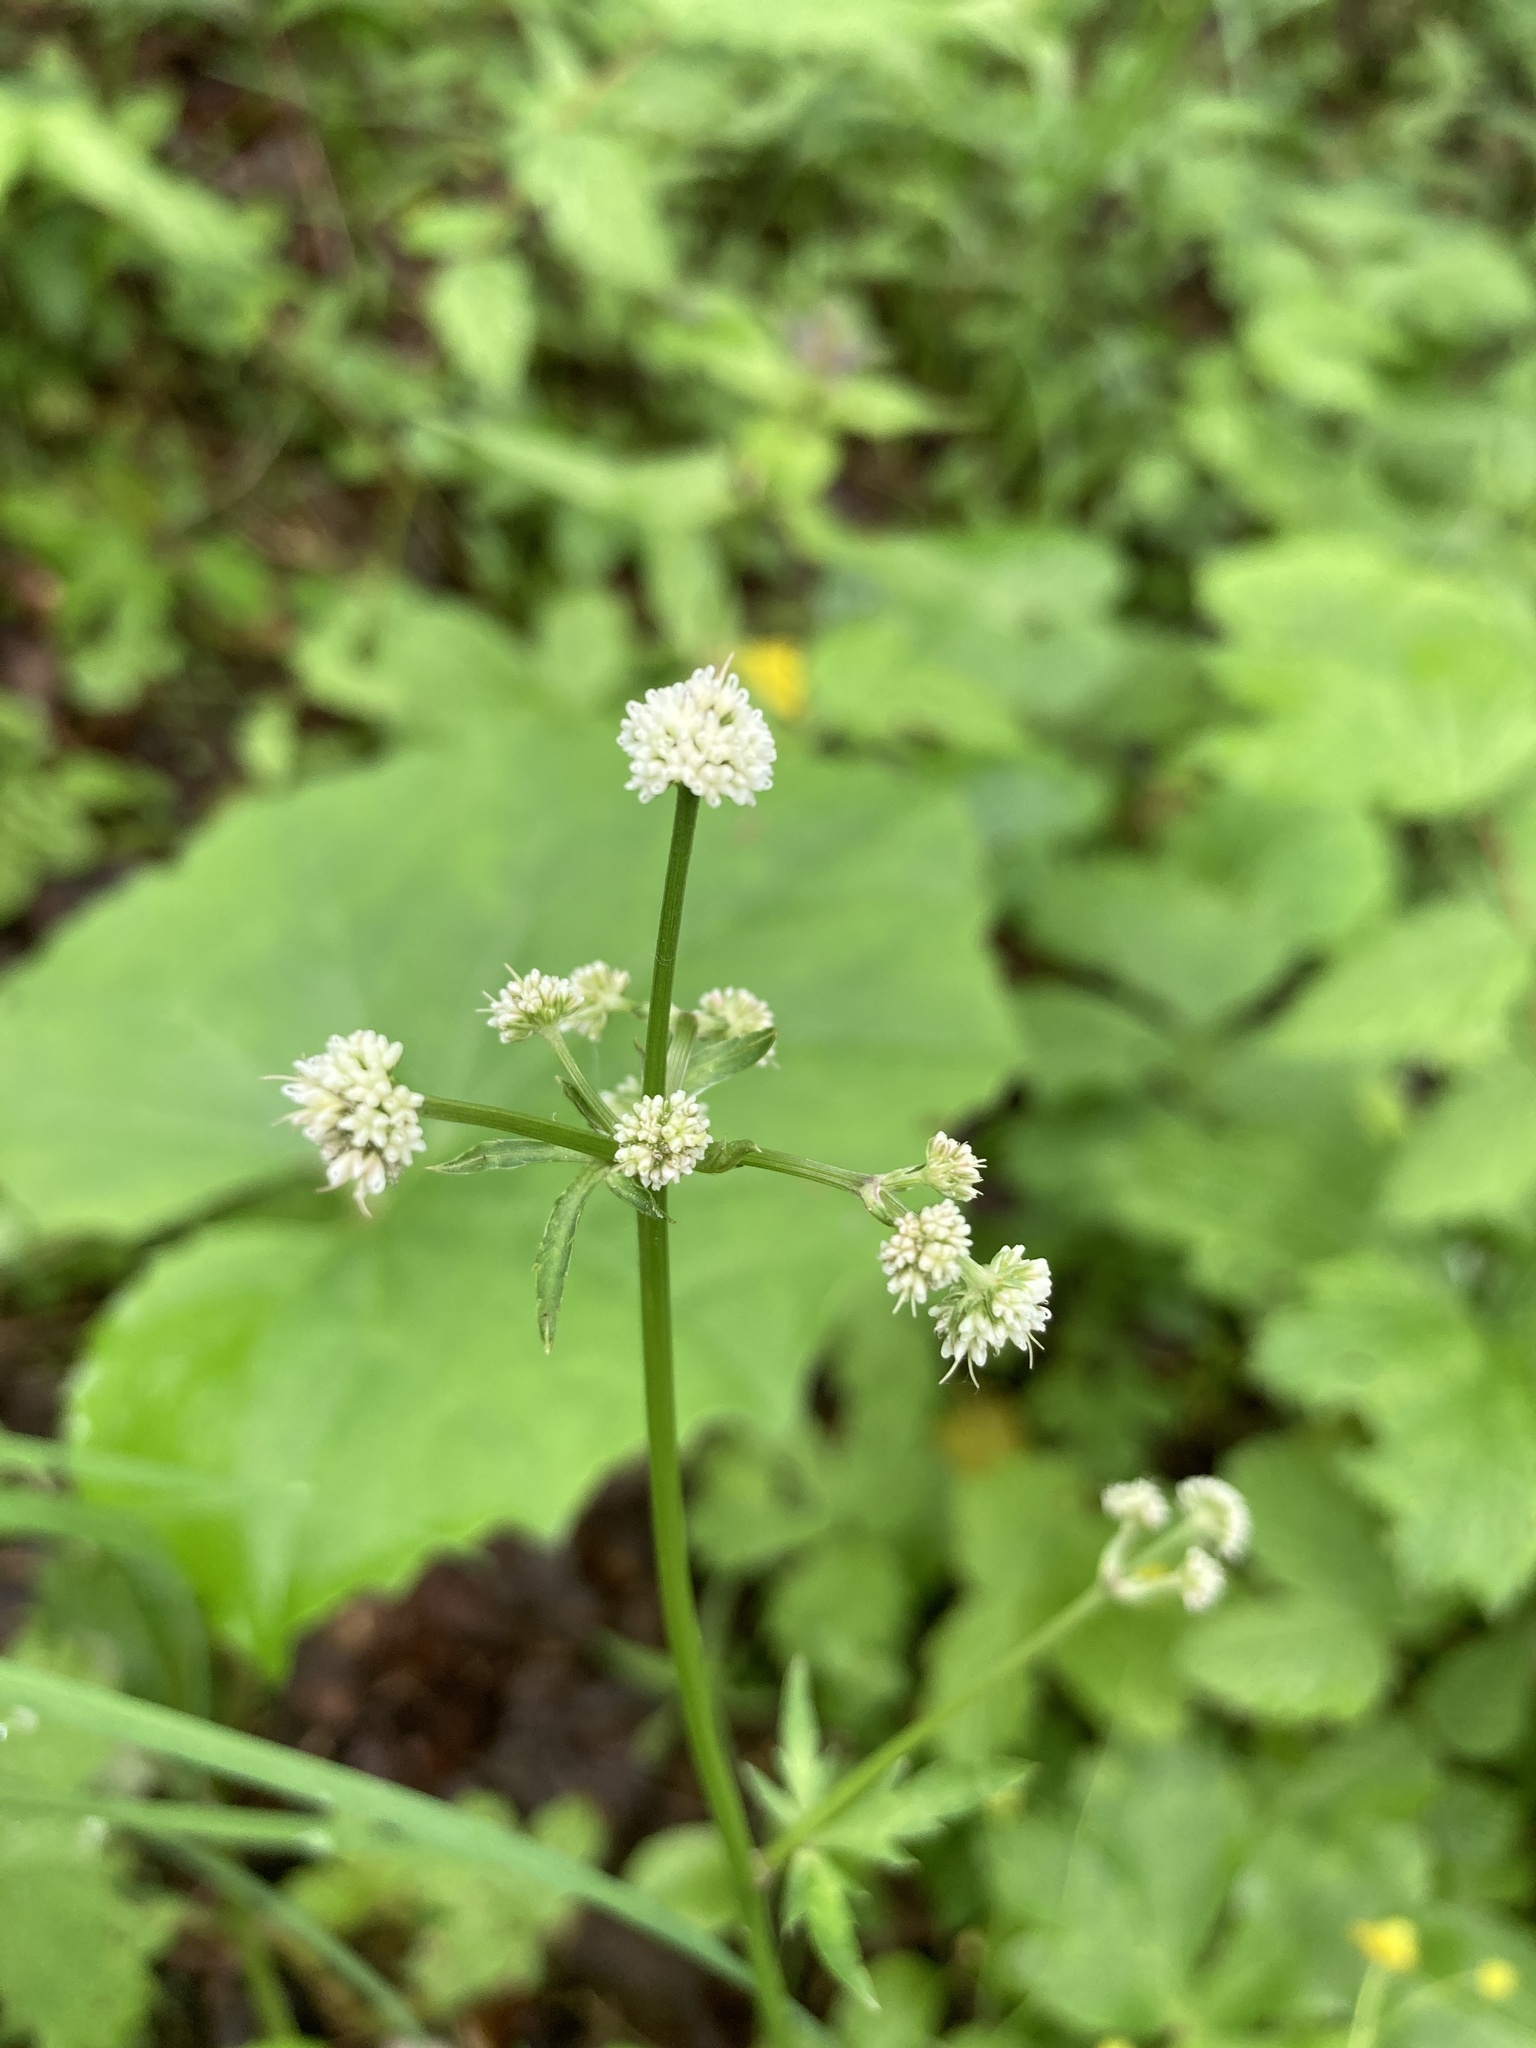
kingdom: Plantae
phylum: Tracheophyta
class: Magnoliopsida
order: Apiales
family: Apiaceae
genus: Sanicula
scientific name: Sanicula europaea
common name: Sanicle
